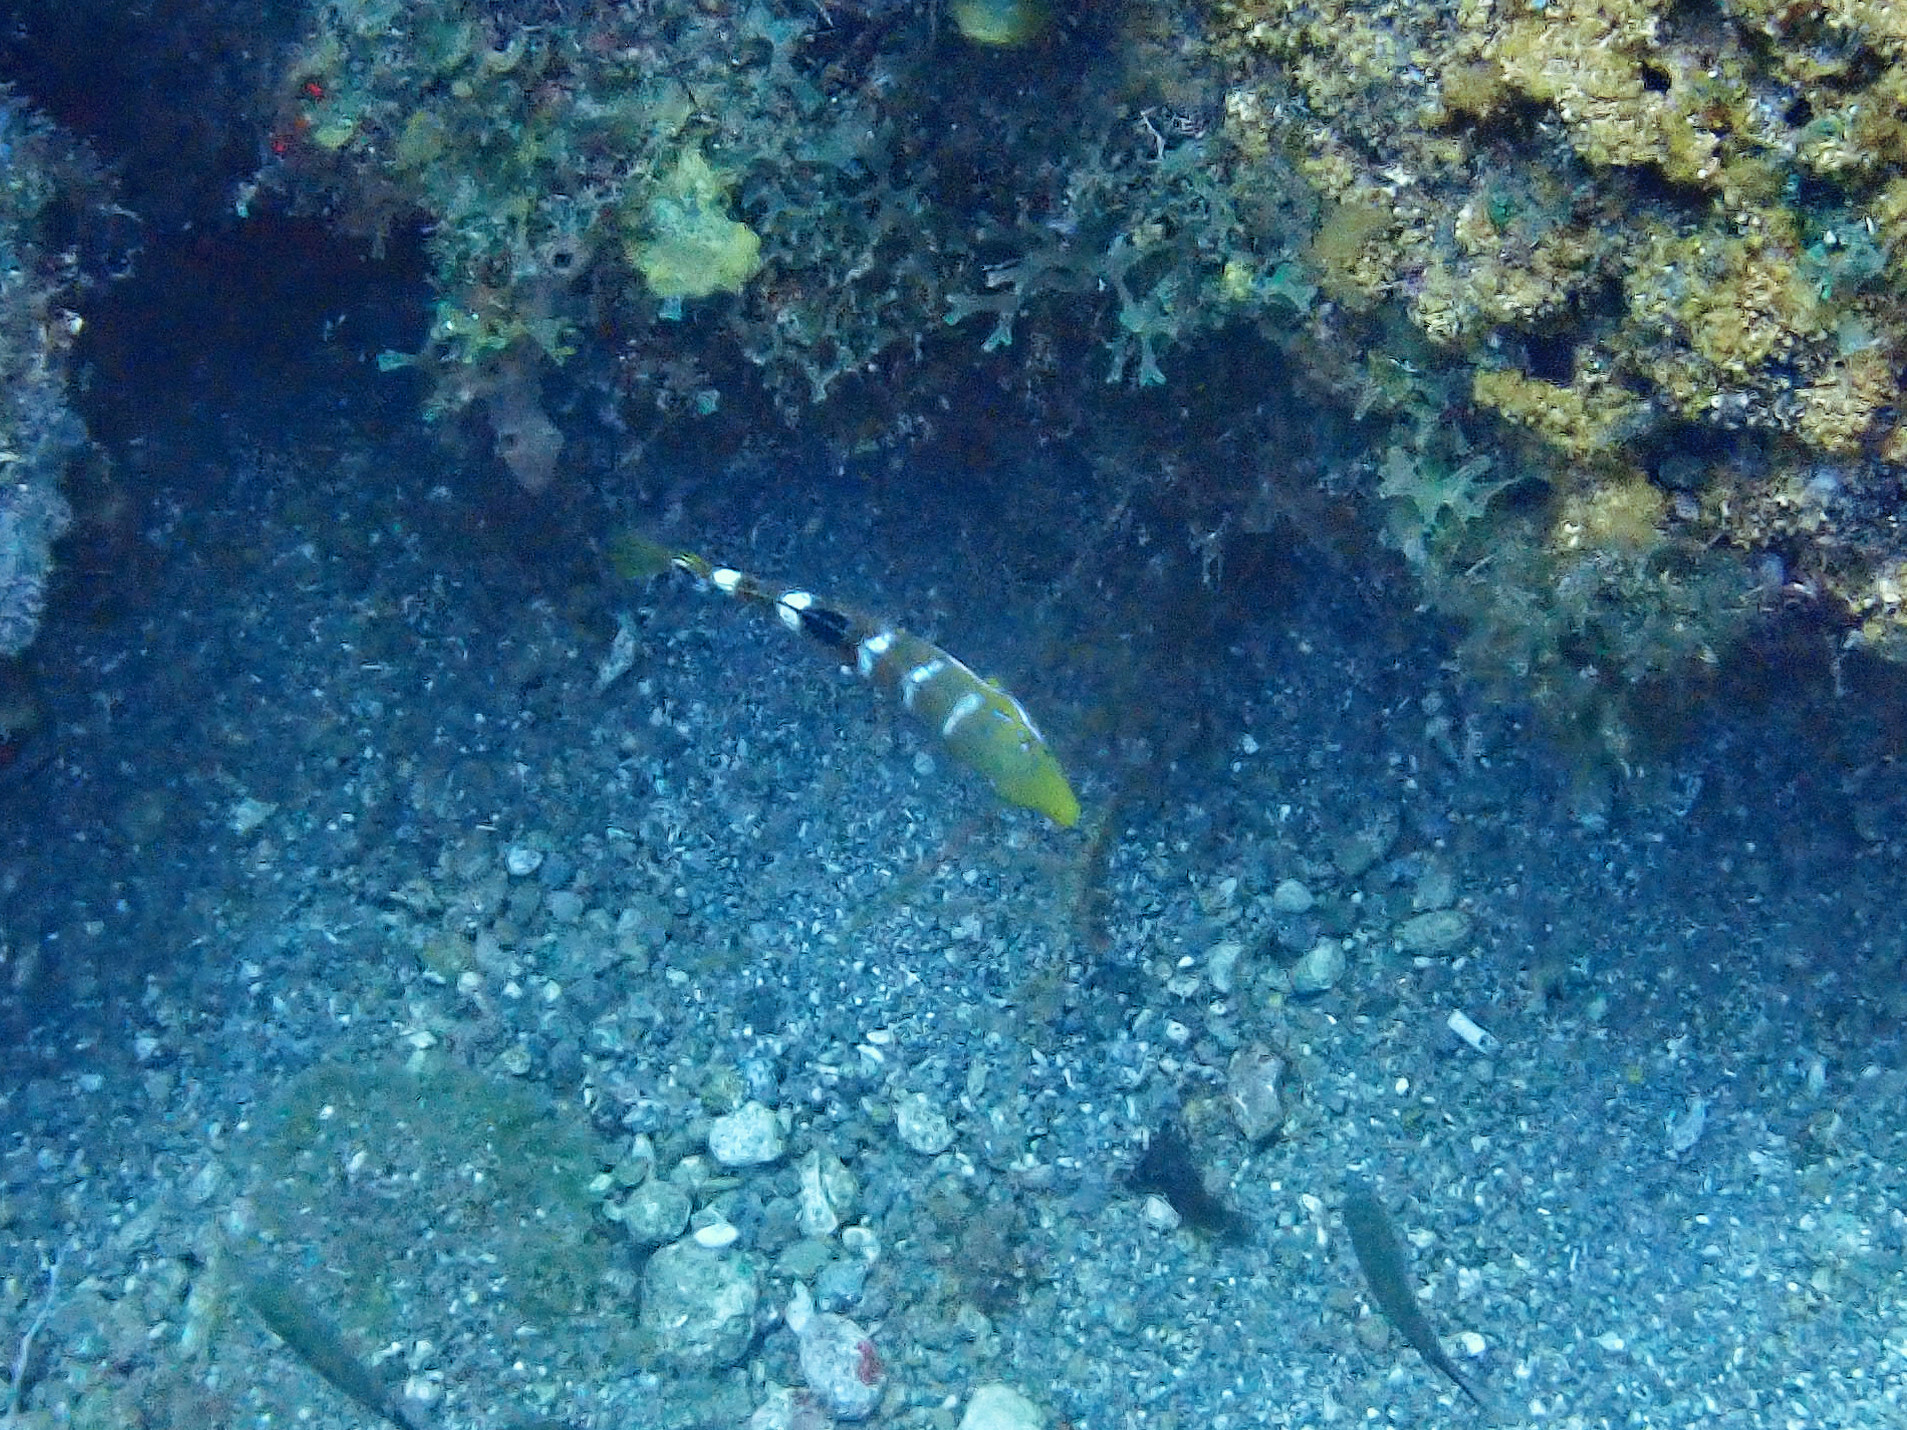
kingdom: Animalia
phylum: Chordata
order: Perciformes
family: Labridae
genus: Halichoeres
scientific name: Halichoeres radiatus
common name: Puddingwife
